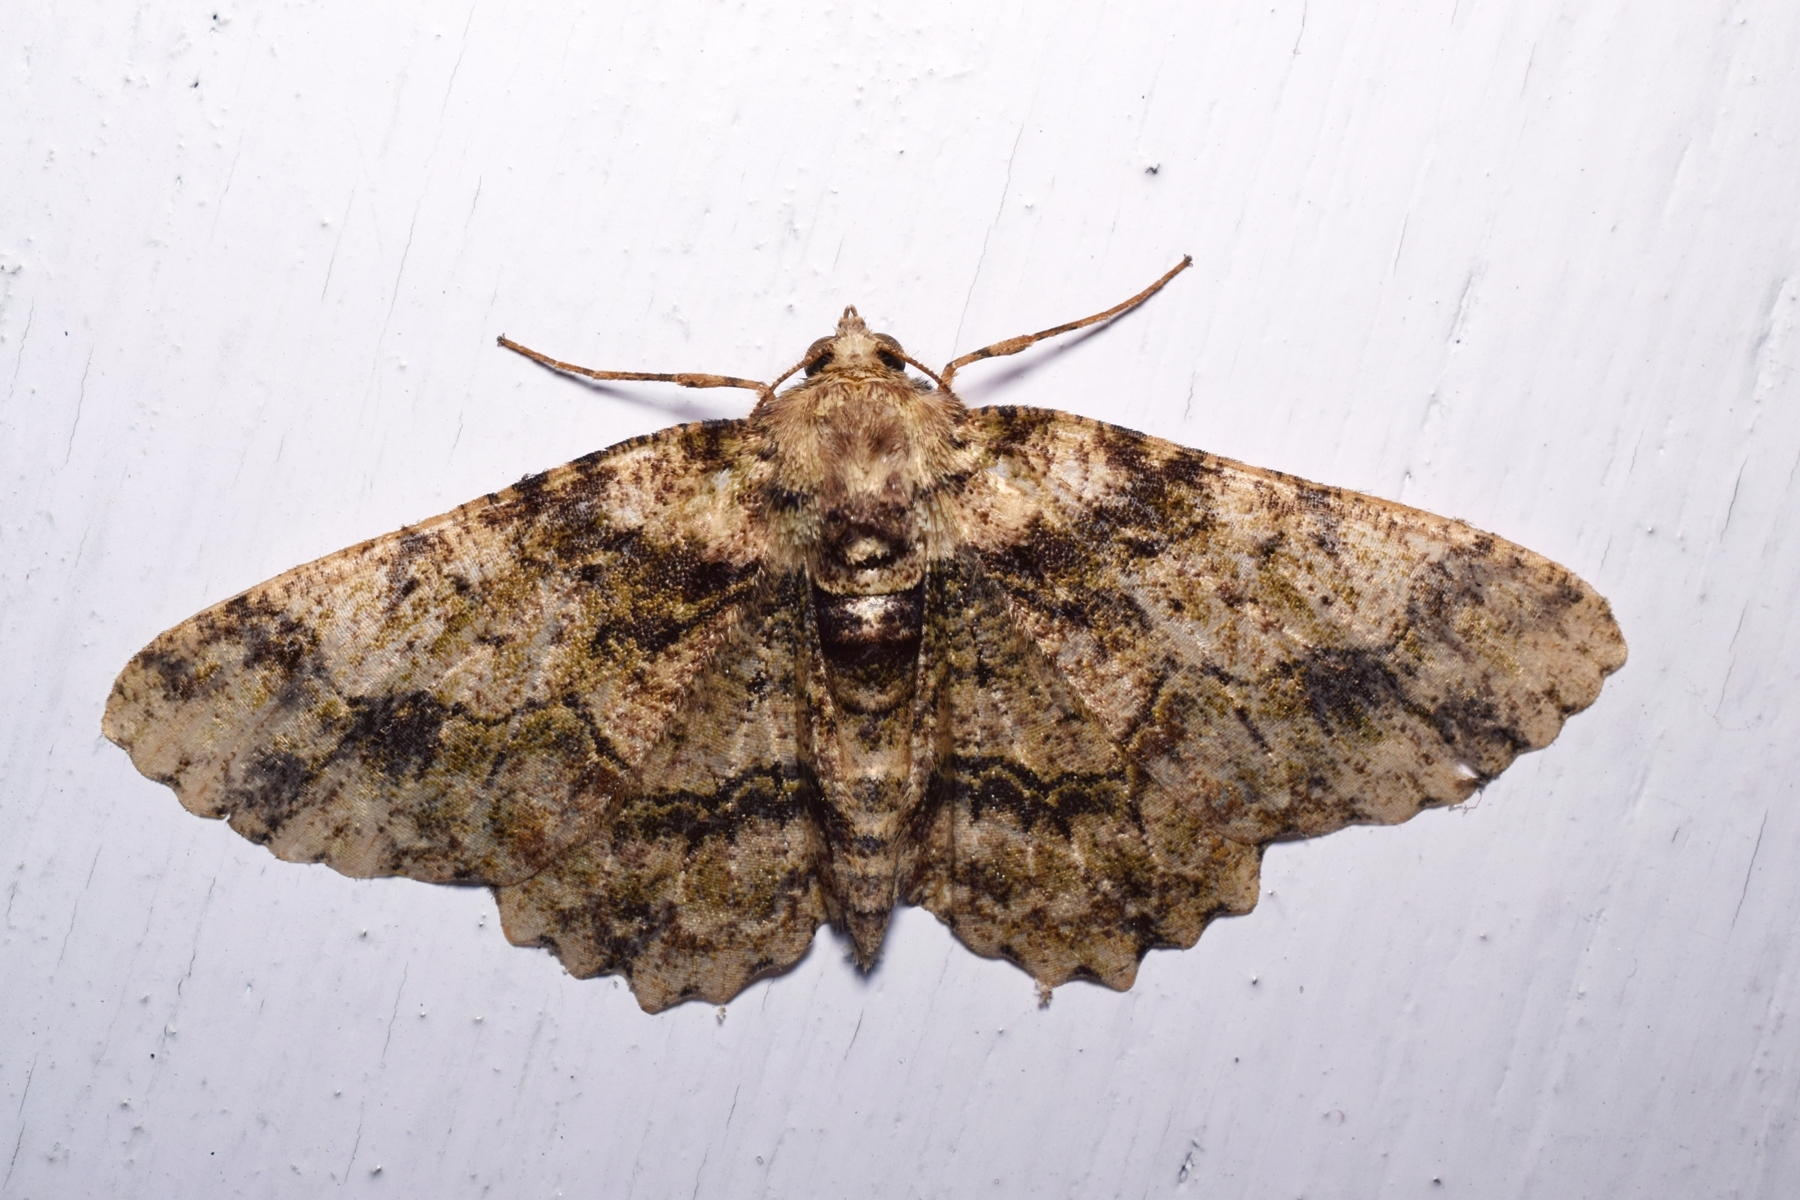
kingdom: Animalia
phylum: Arthropoda
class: Insecta
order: Lepidoptera
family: Geometridae
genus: Paradarisa
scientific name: Paradarisa comparataria
